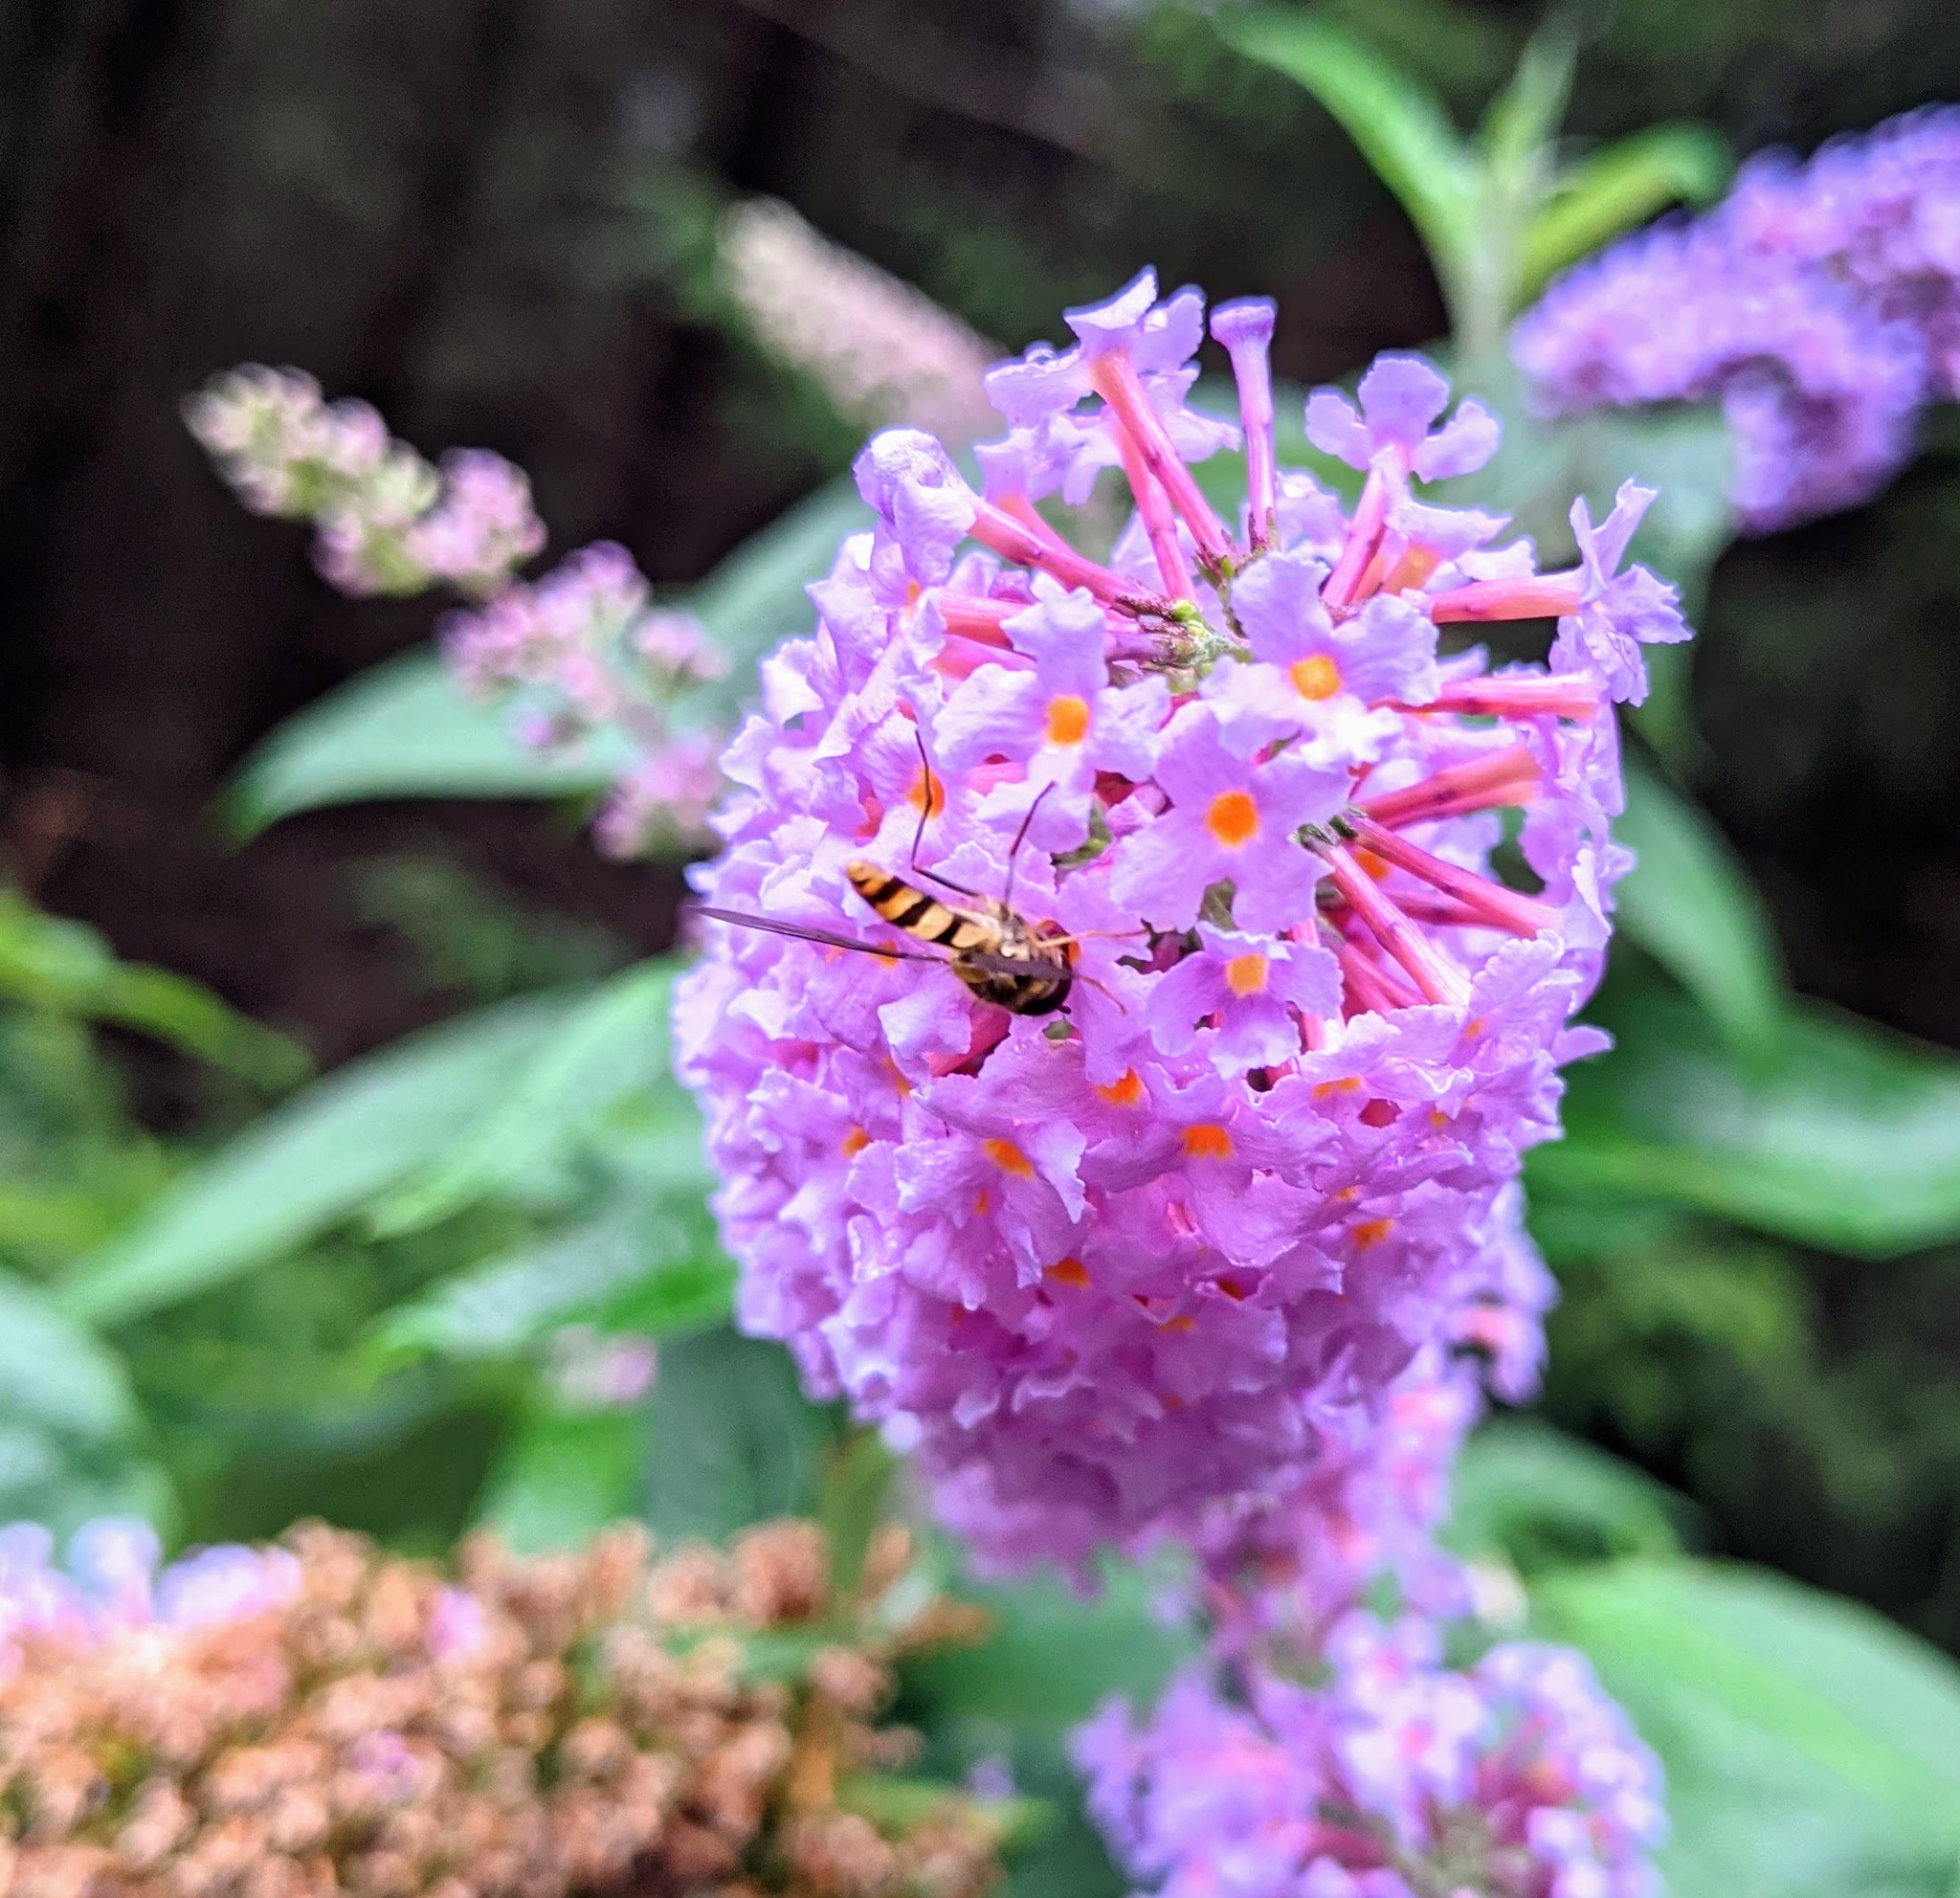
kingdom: Animalia
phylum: Arthropoda
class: Insecta
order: Diptera
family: Syrphidae
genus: Meliscaeva
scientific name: Meliscaeva cinctella
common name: American thintail fly
